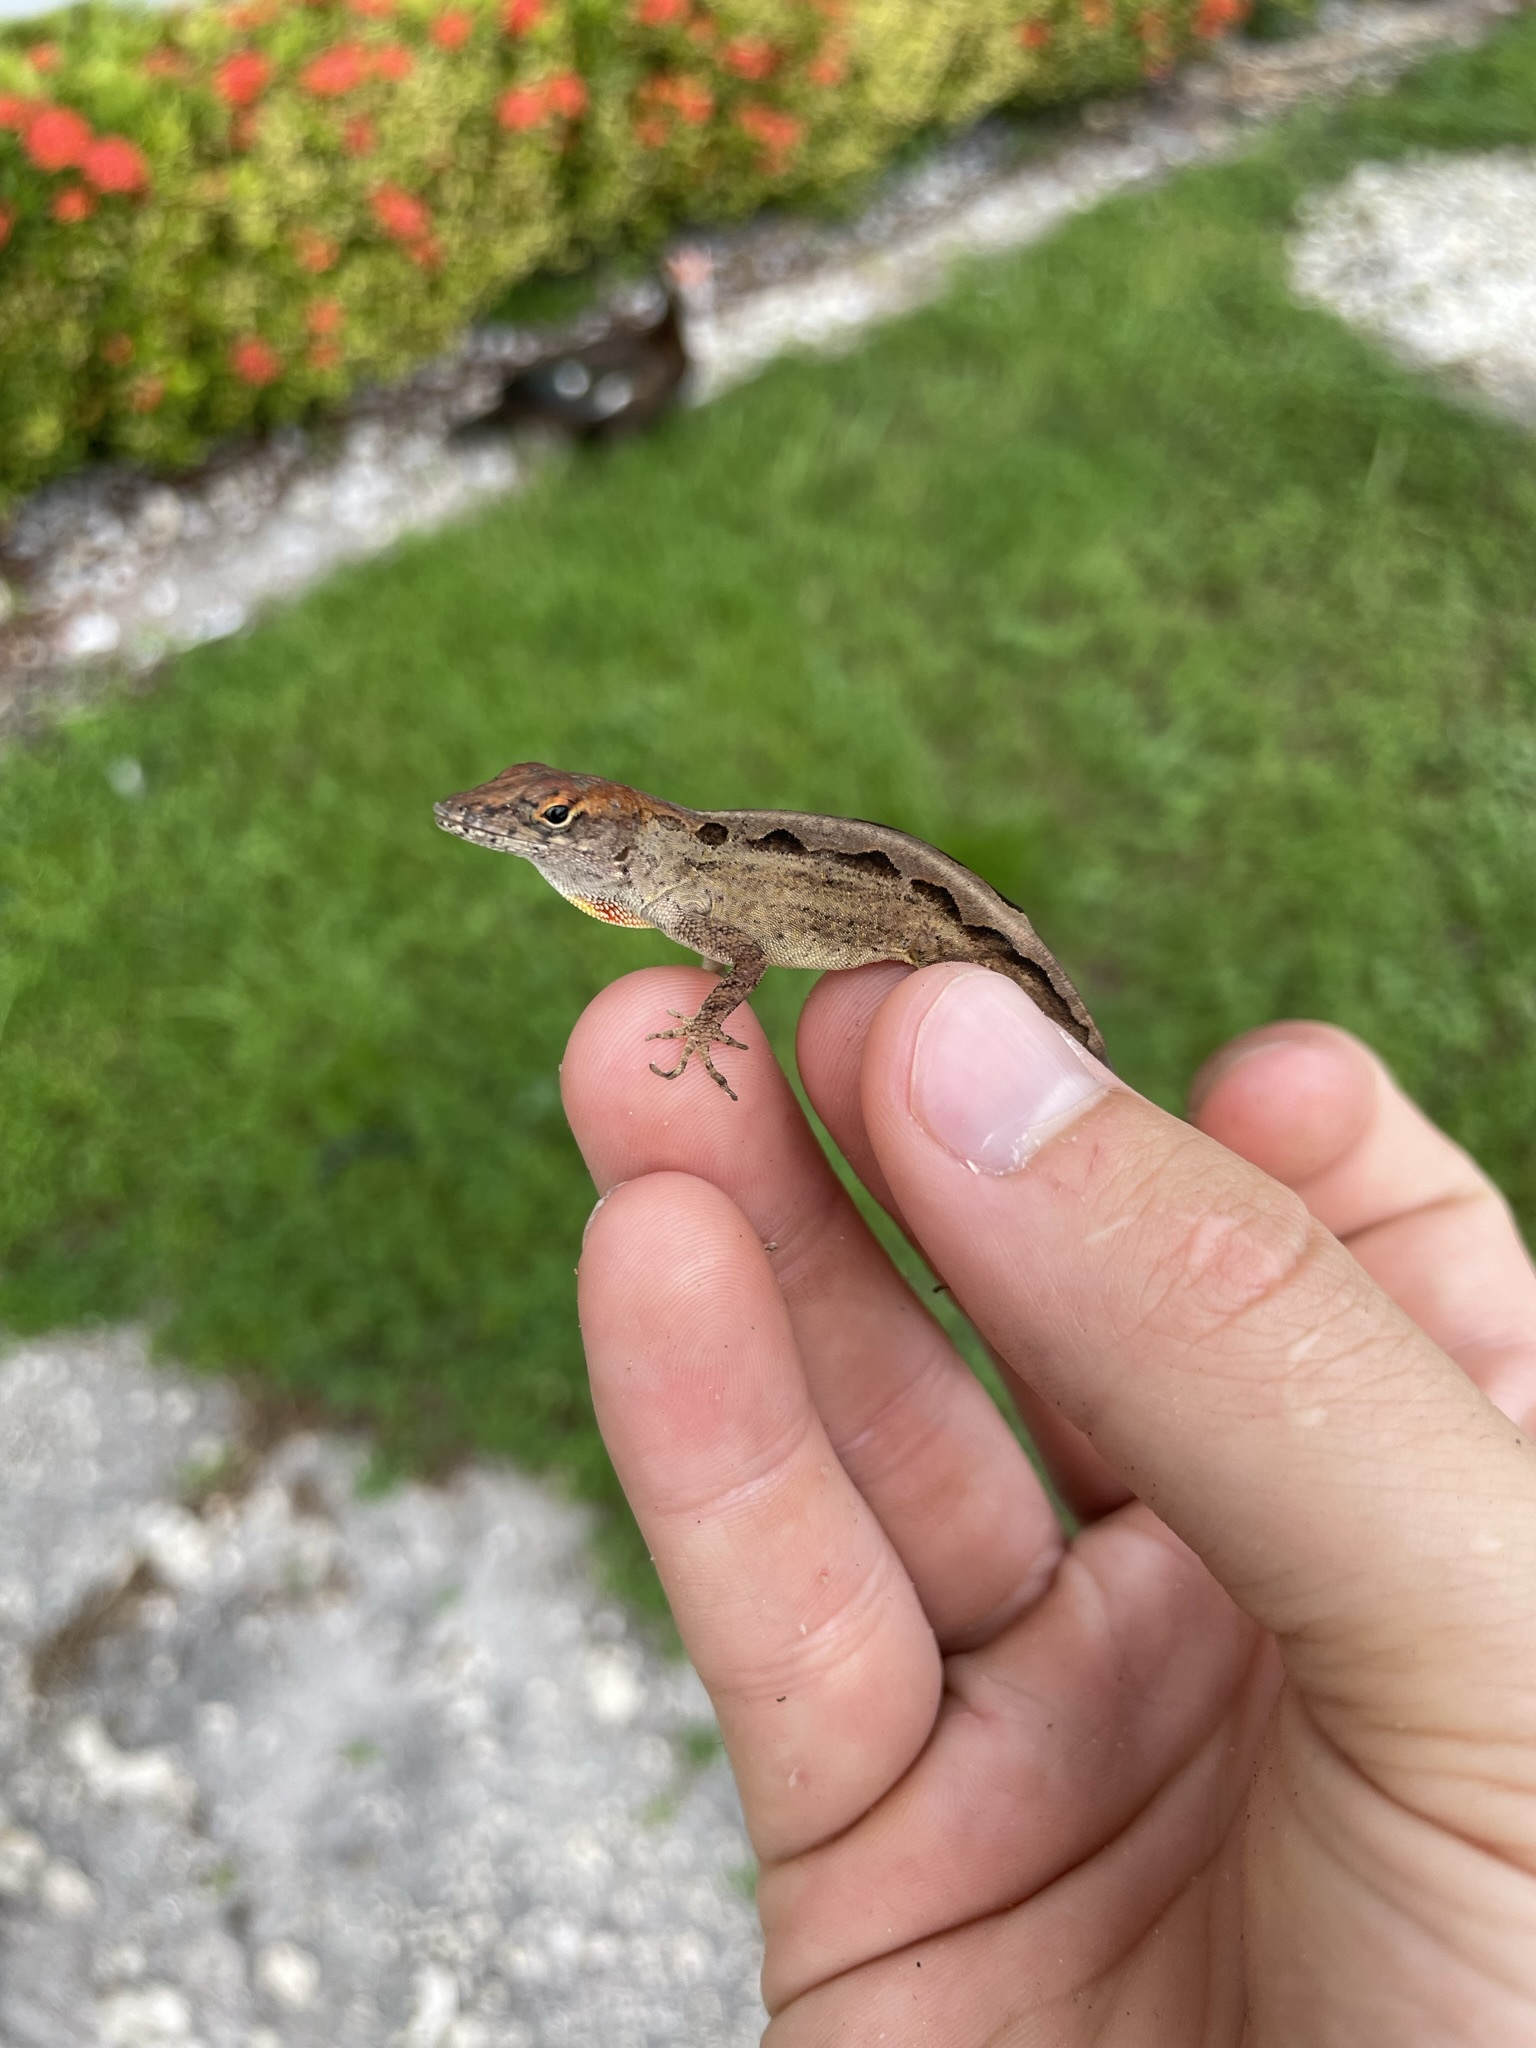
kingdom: Animalia
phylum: Chordata
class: Squamata
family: Dactyloidae
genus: Anolis
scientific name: Anolis sagrei
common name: Brown anole
